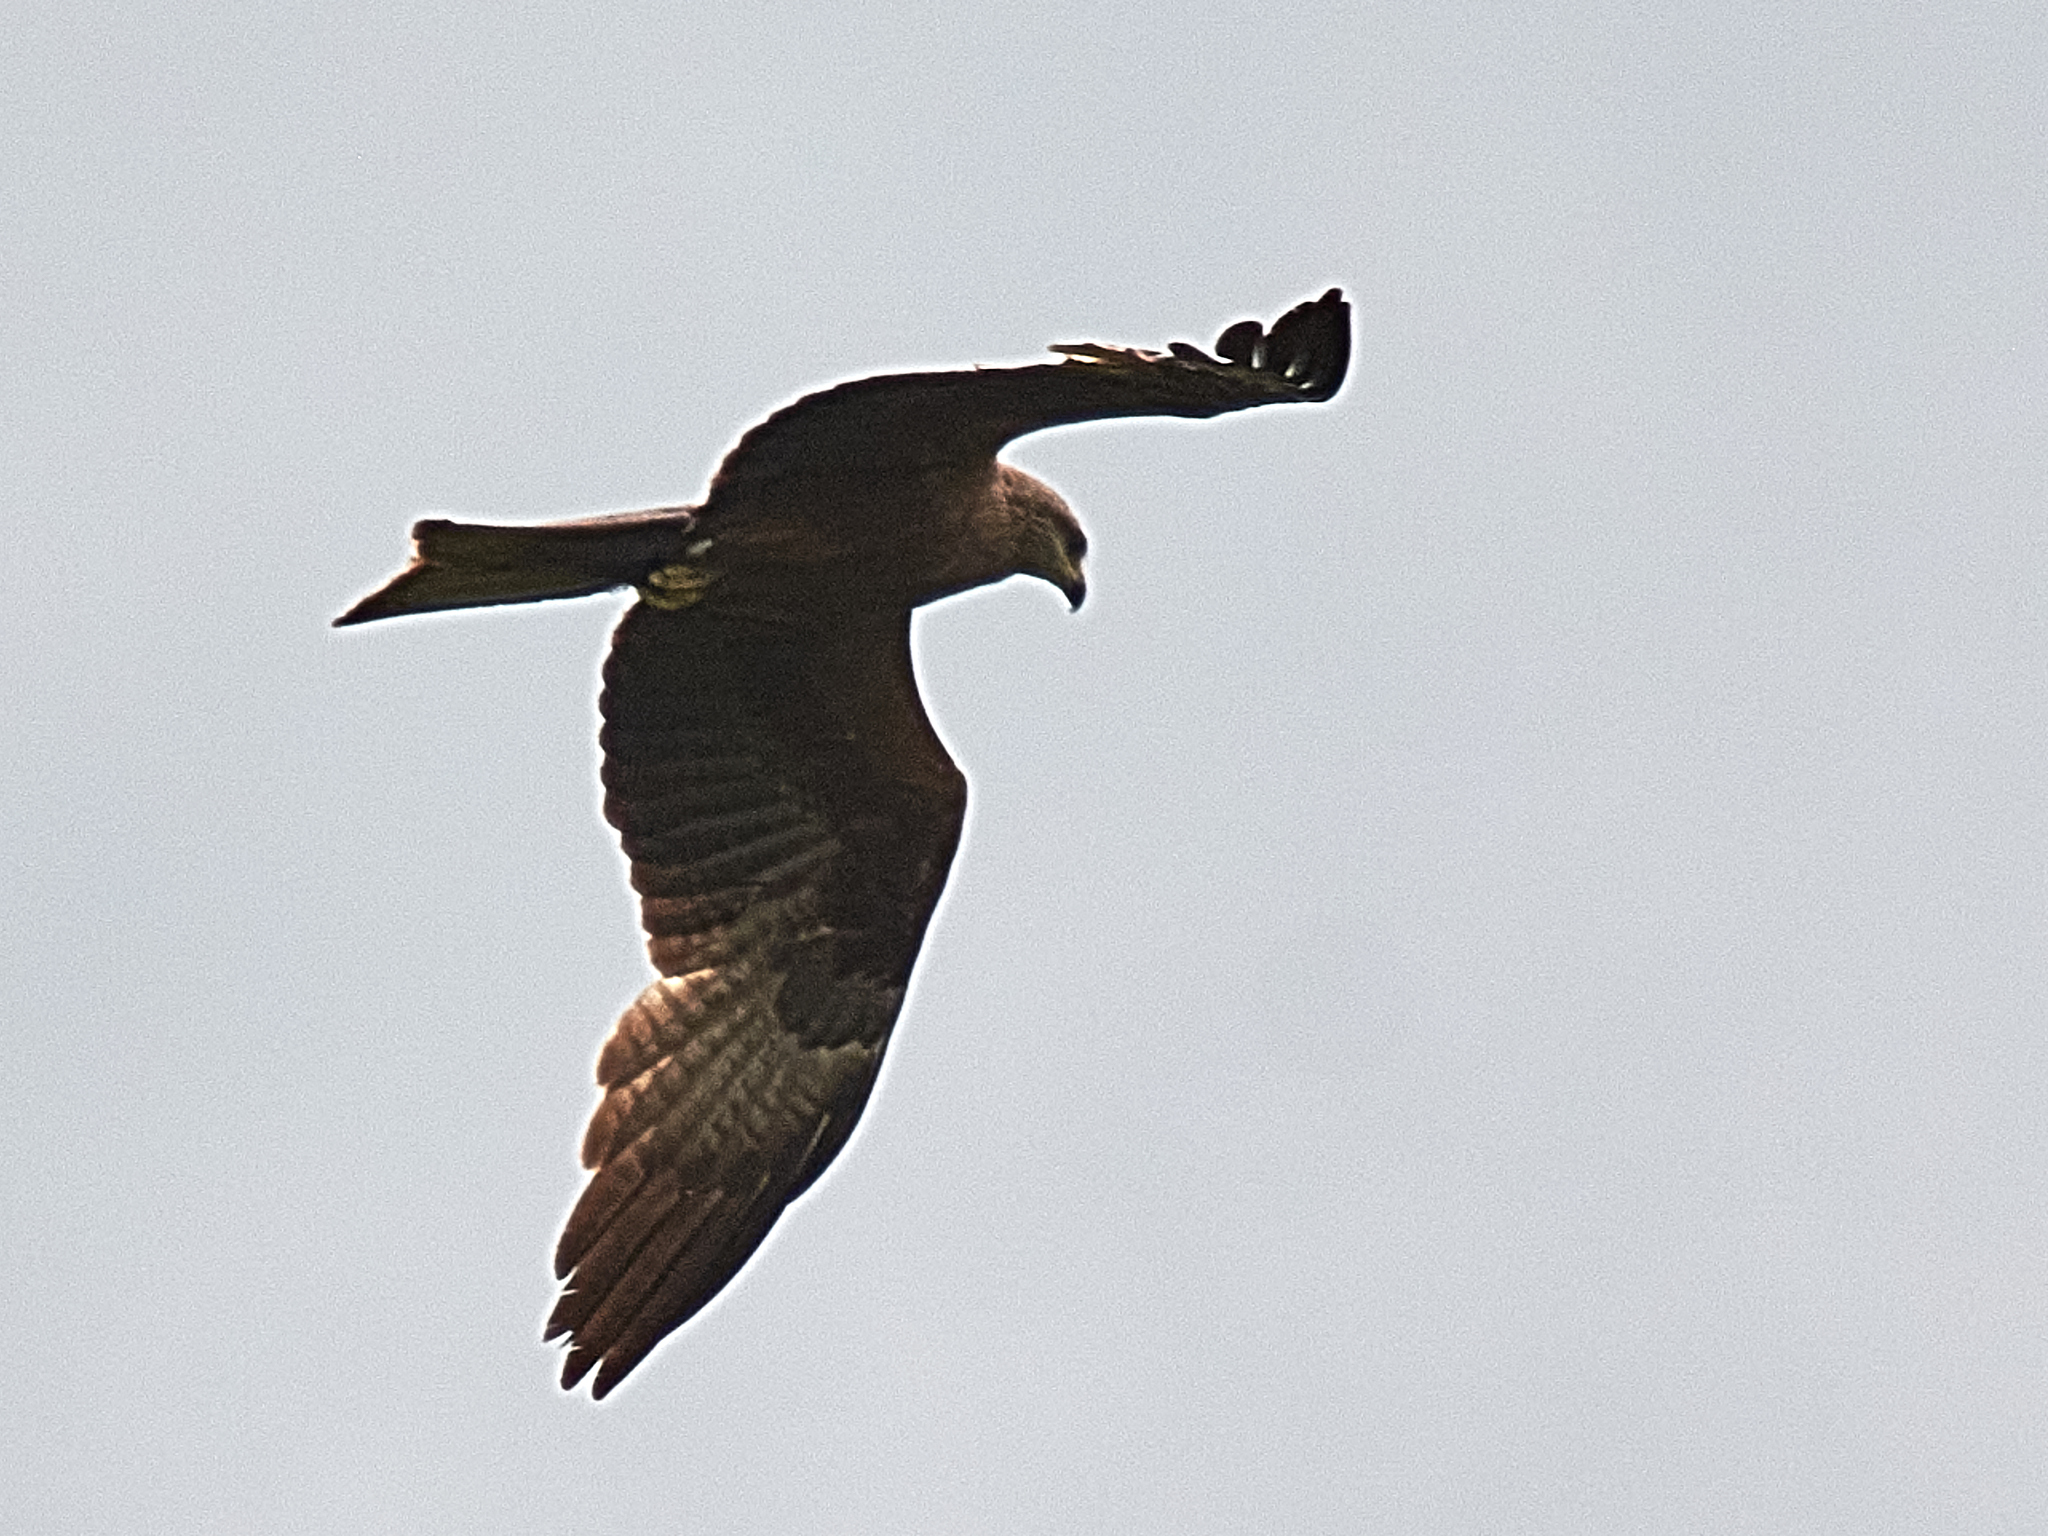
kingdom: Animalia
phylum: Chordata
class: Aves
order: Accipitriformes
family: Accipitridae
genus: Milvus
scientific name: Milvus migrans
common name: Black kite
